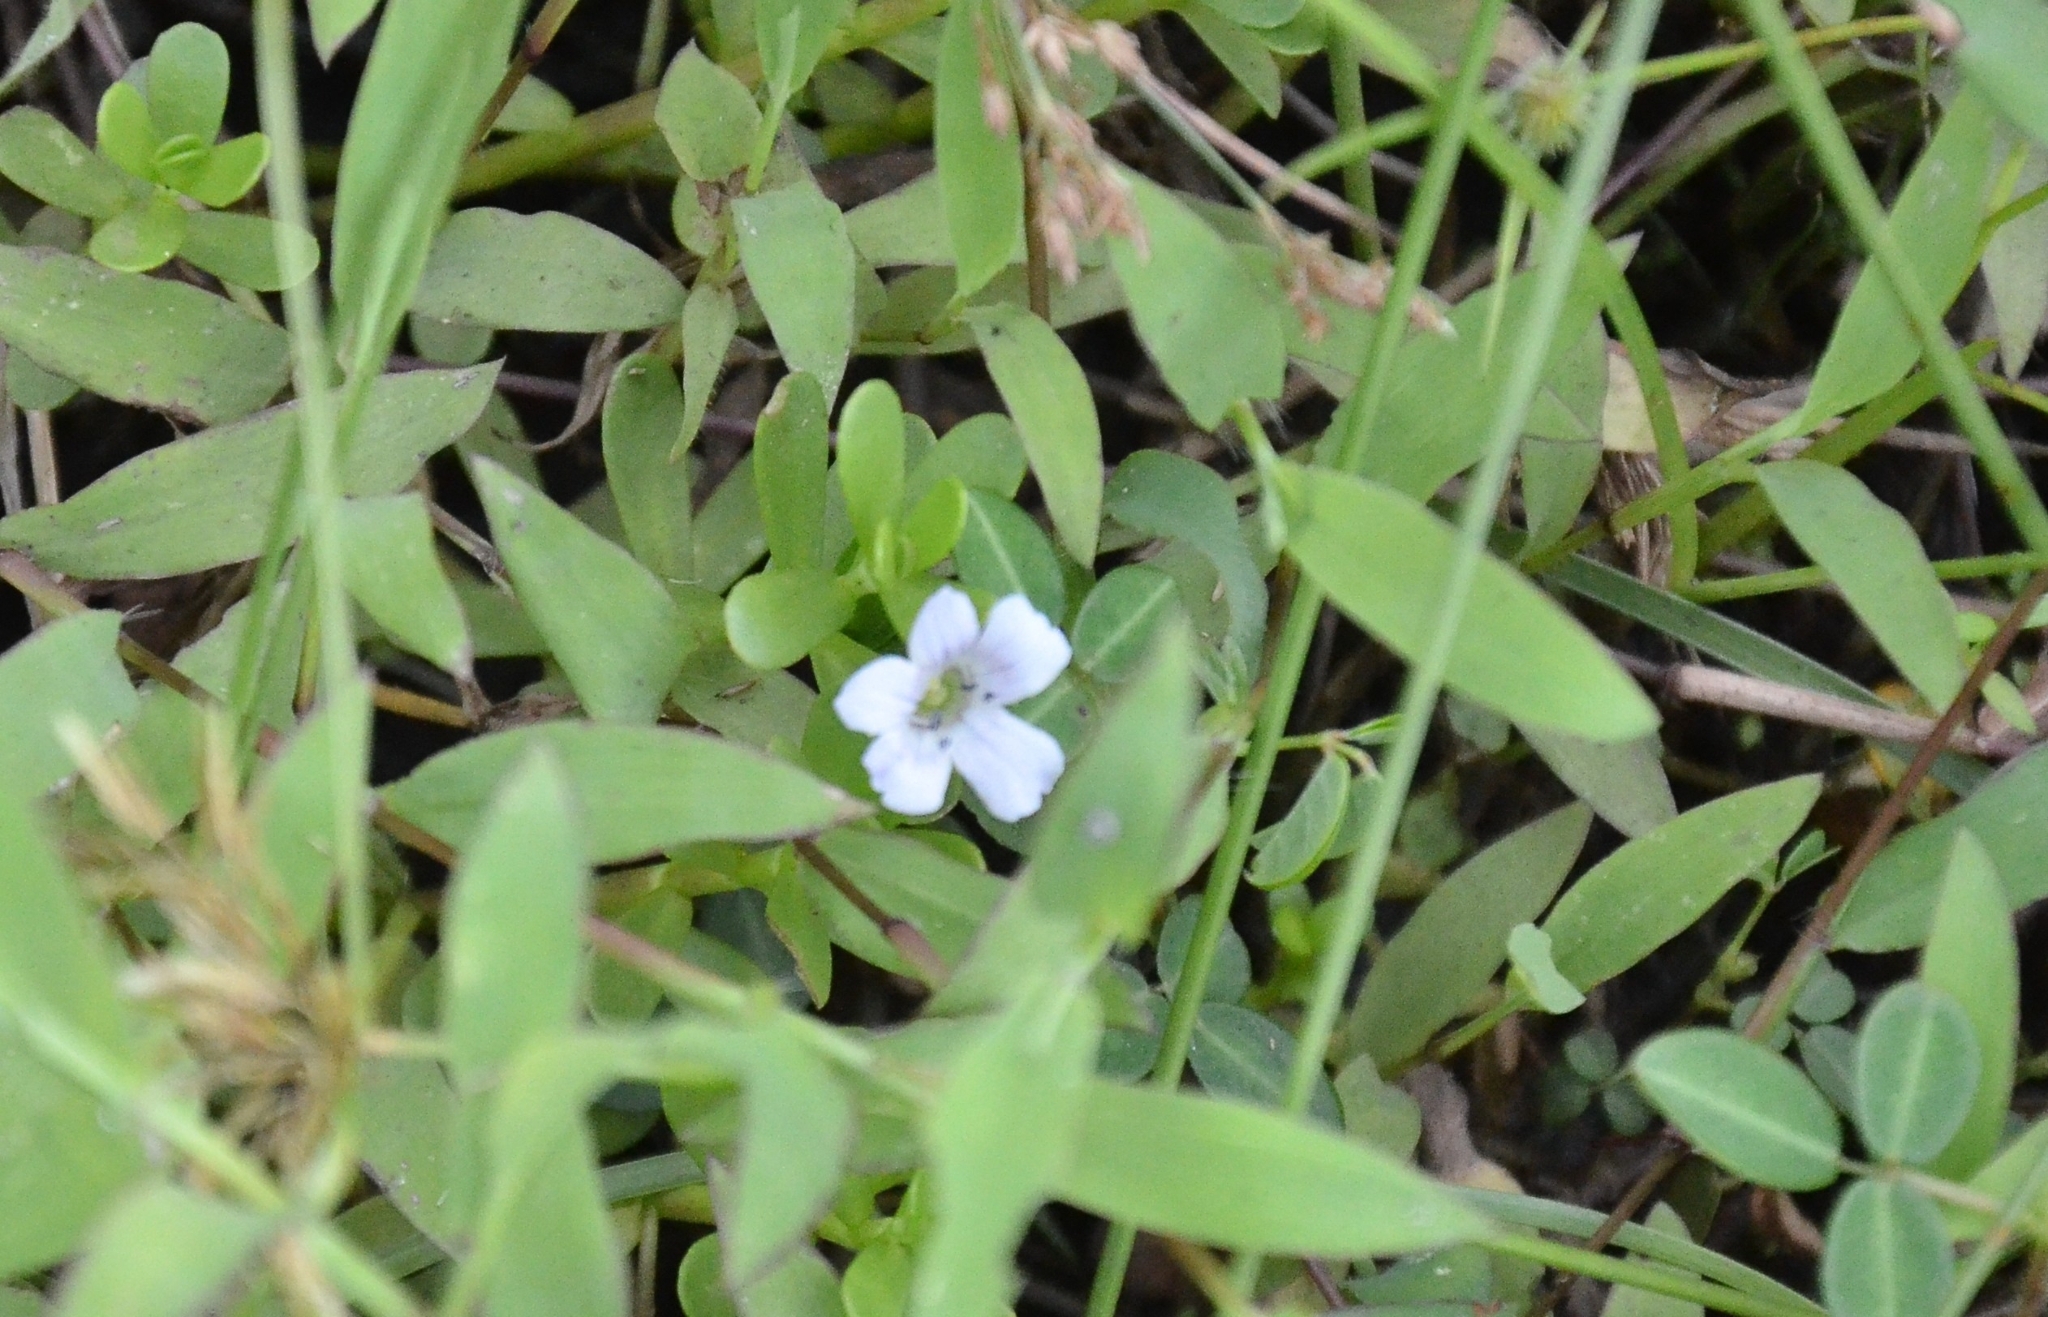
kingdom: Plantae
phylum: Tracheophyta
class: Magnoliopsida
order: Lamiales
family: Plantaginaceae
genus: Bacopa
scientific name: Bacopa monnieri
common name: Indian-pennywort
